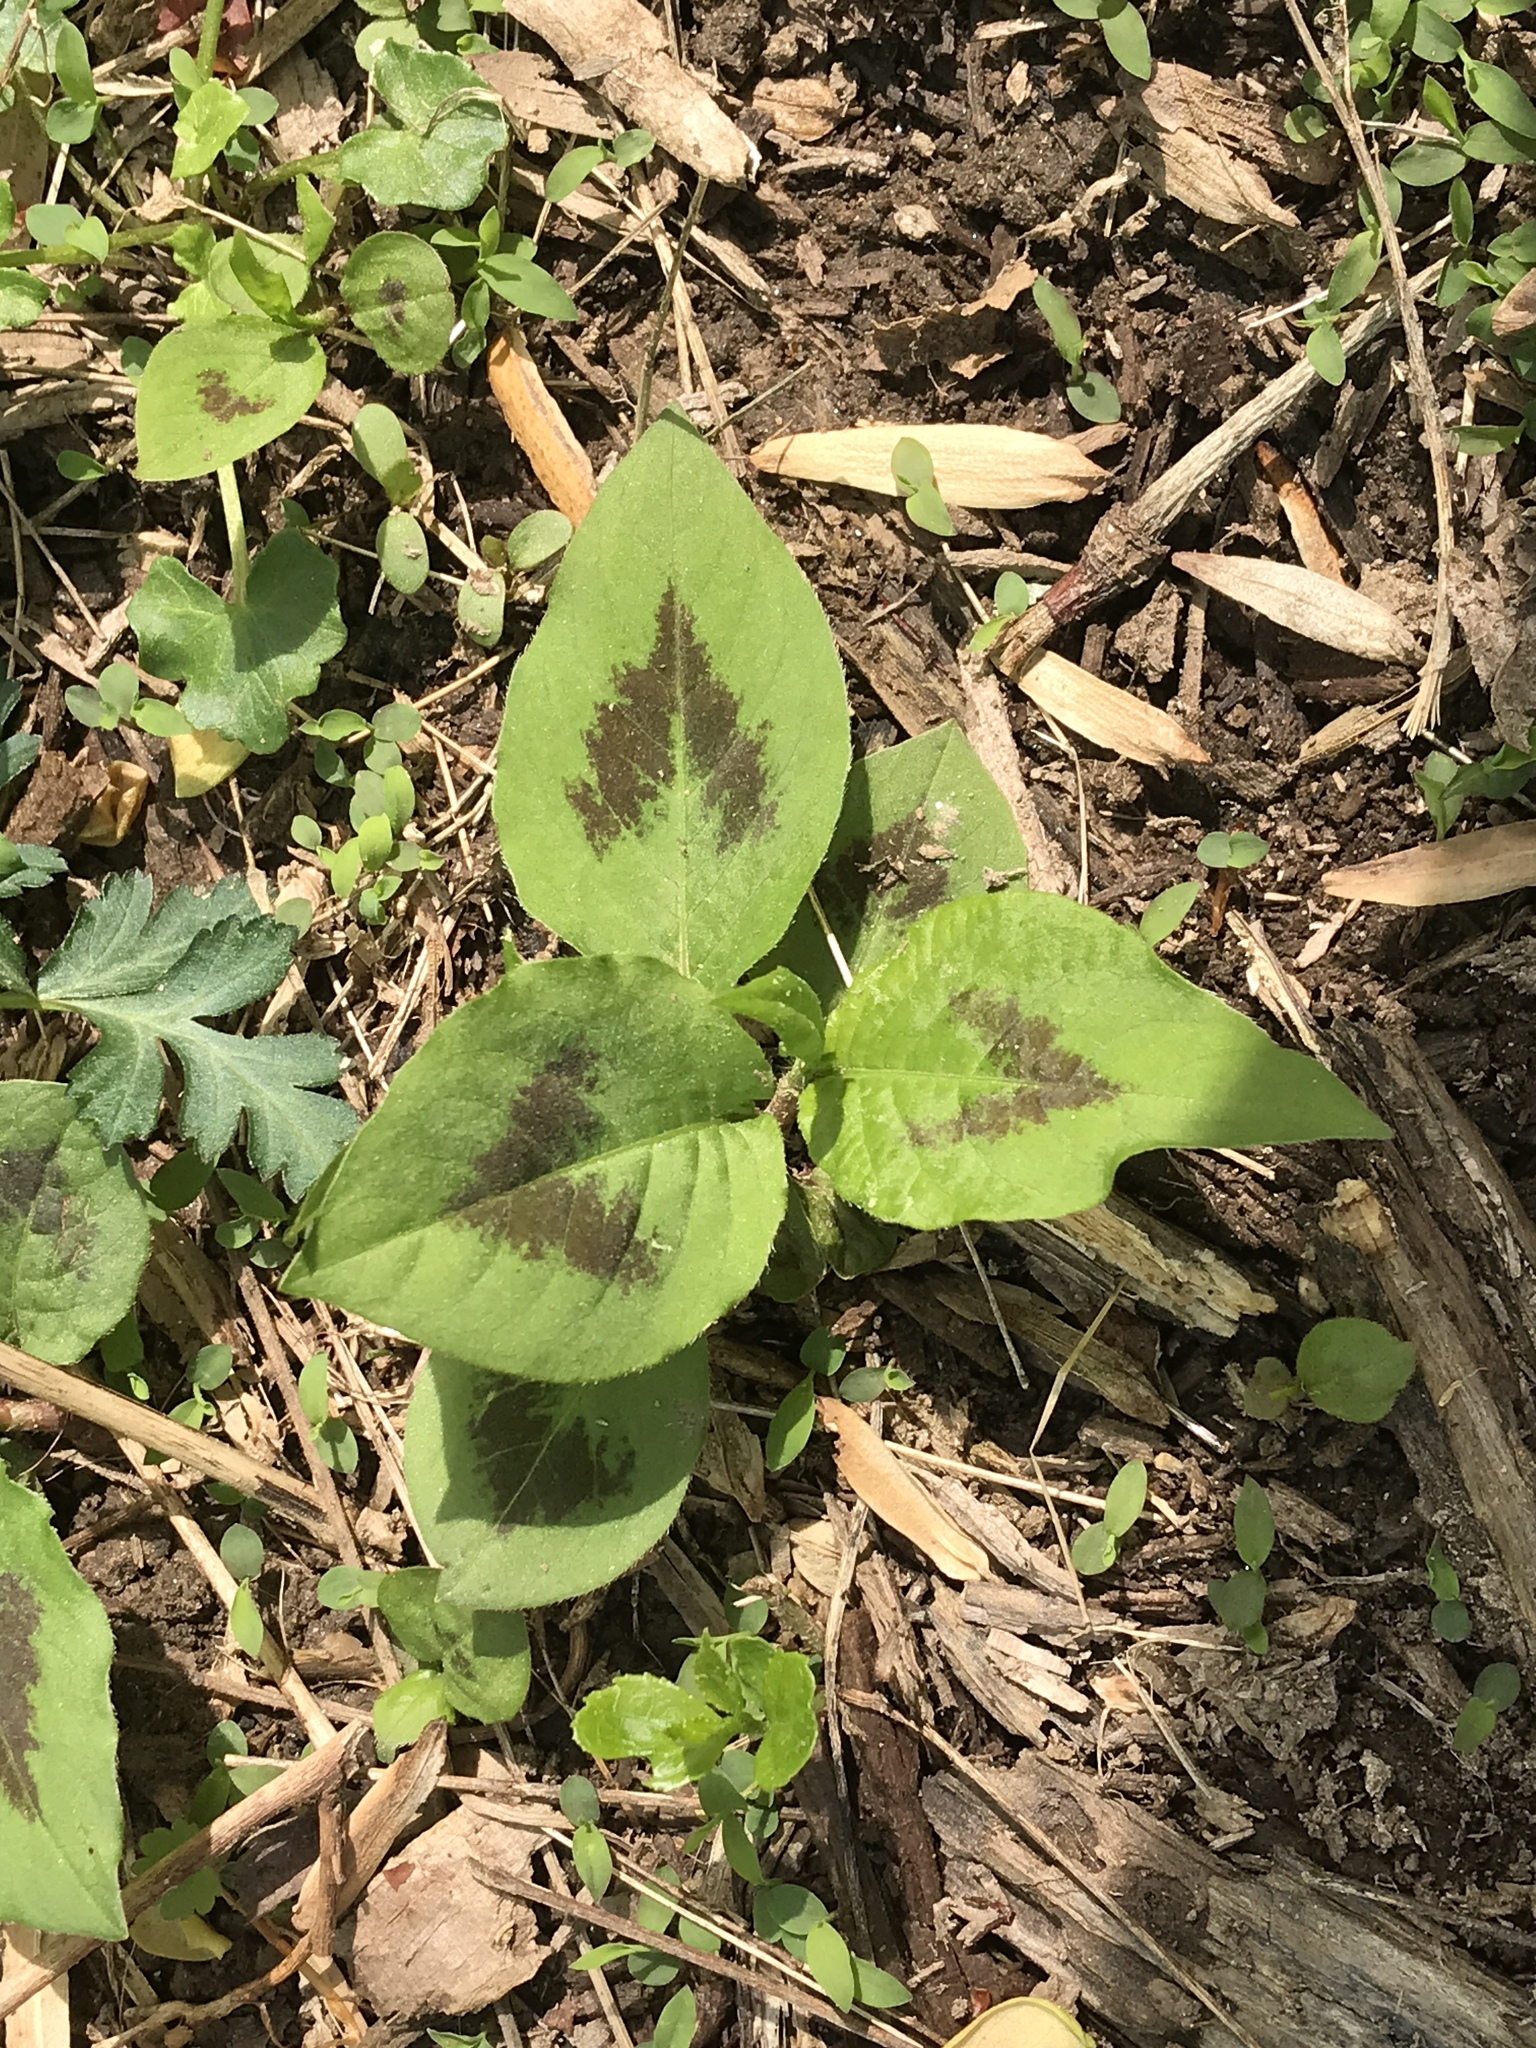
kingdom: Plantae
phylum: Tracheophyta
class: Magnoliopsida
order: Caryophyllales
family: Polygonaceae
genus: Persicaria
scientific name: Persicaria virginiana
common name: Jumpseed
